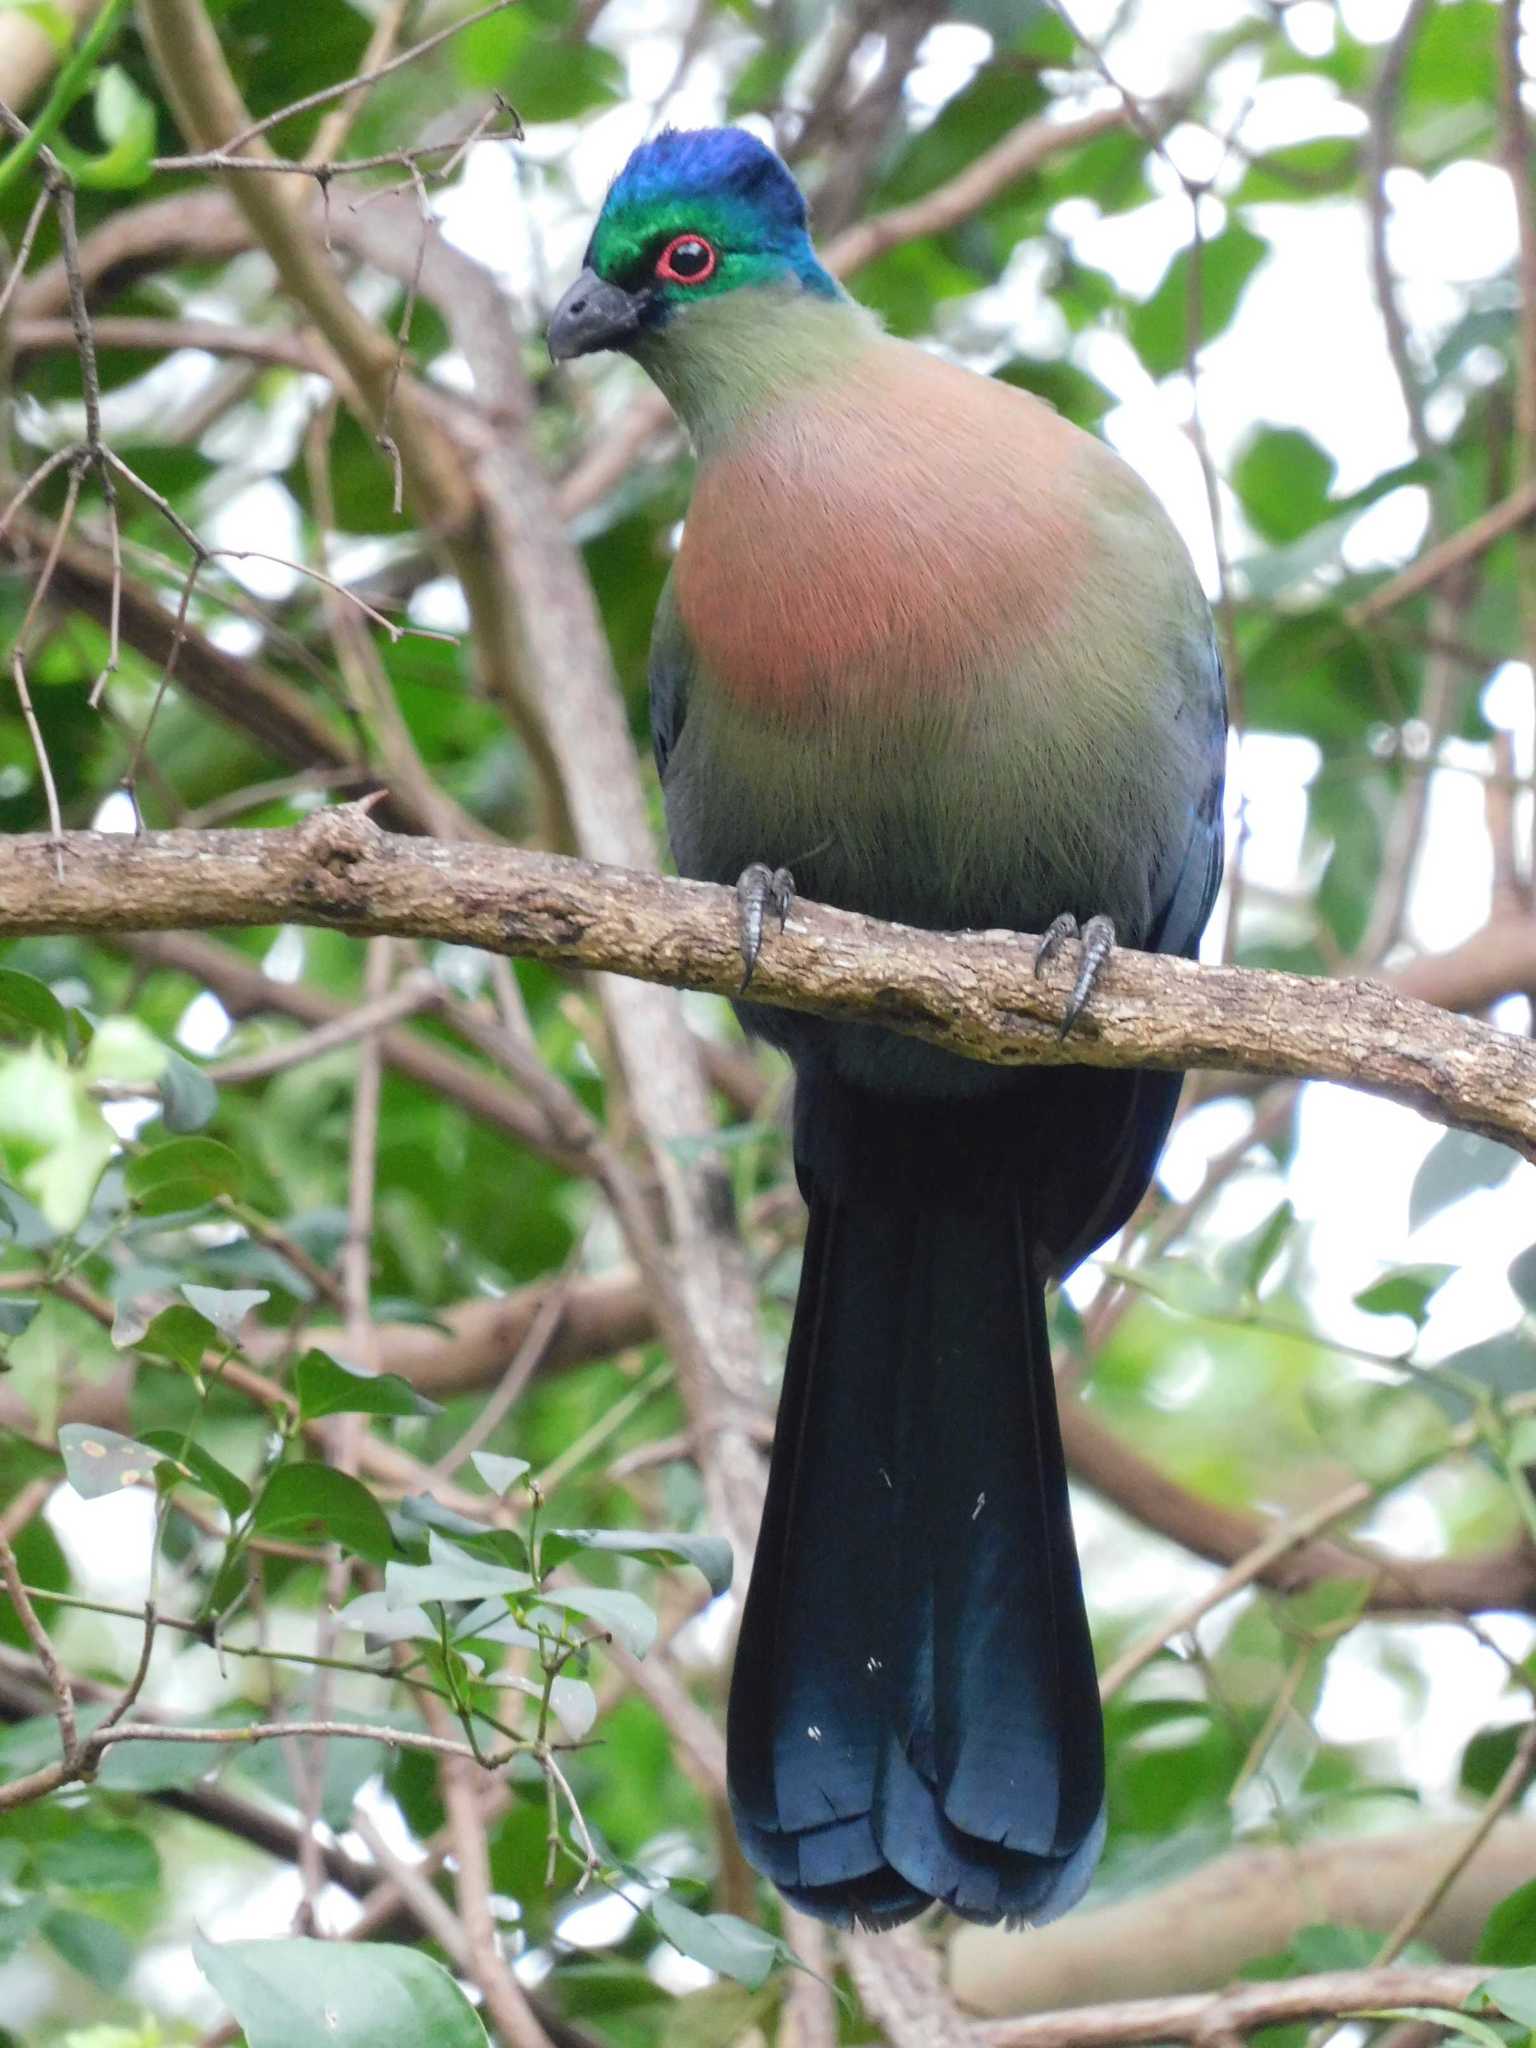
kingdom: Animalia
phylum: Chordata
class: Aves
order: Musophagiformes
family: Musophagidae
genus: Tauraco
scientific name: Tauraco porphyreolophus
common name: Purple-crested turaco
